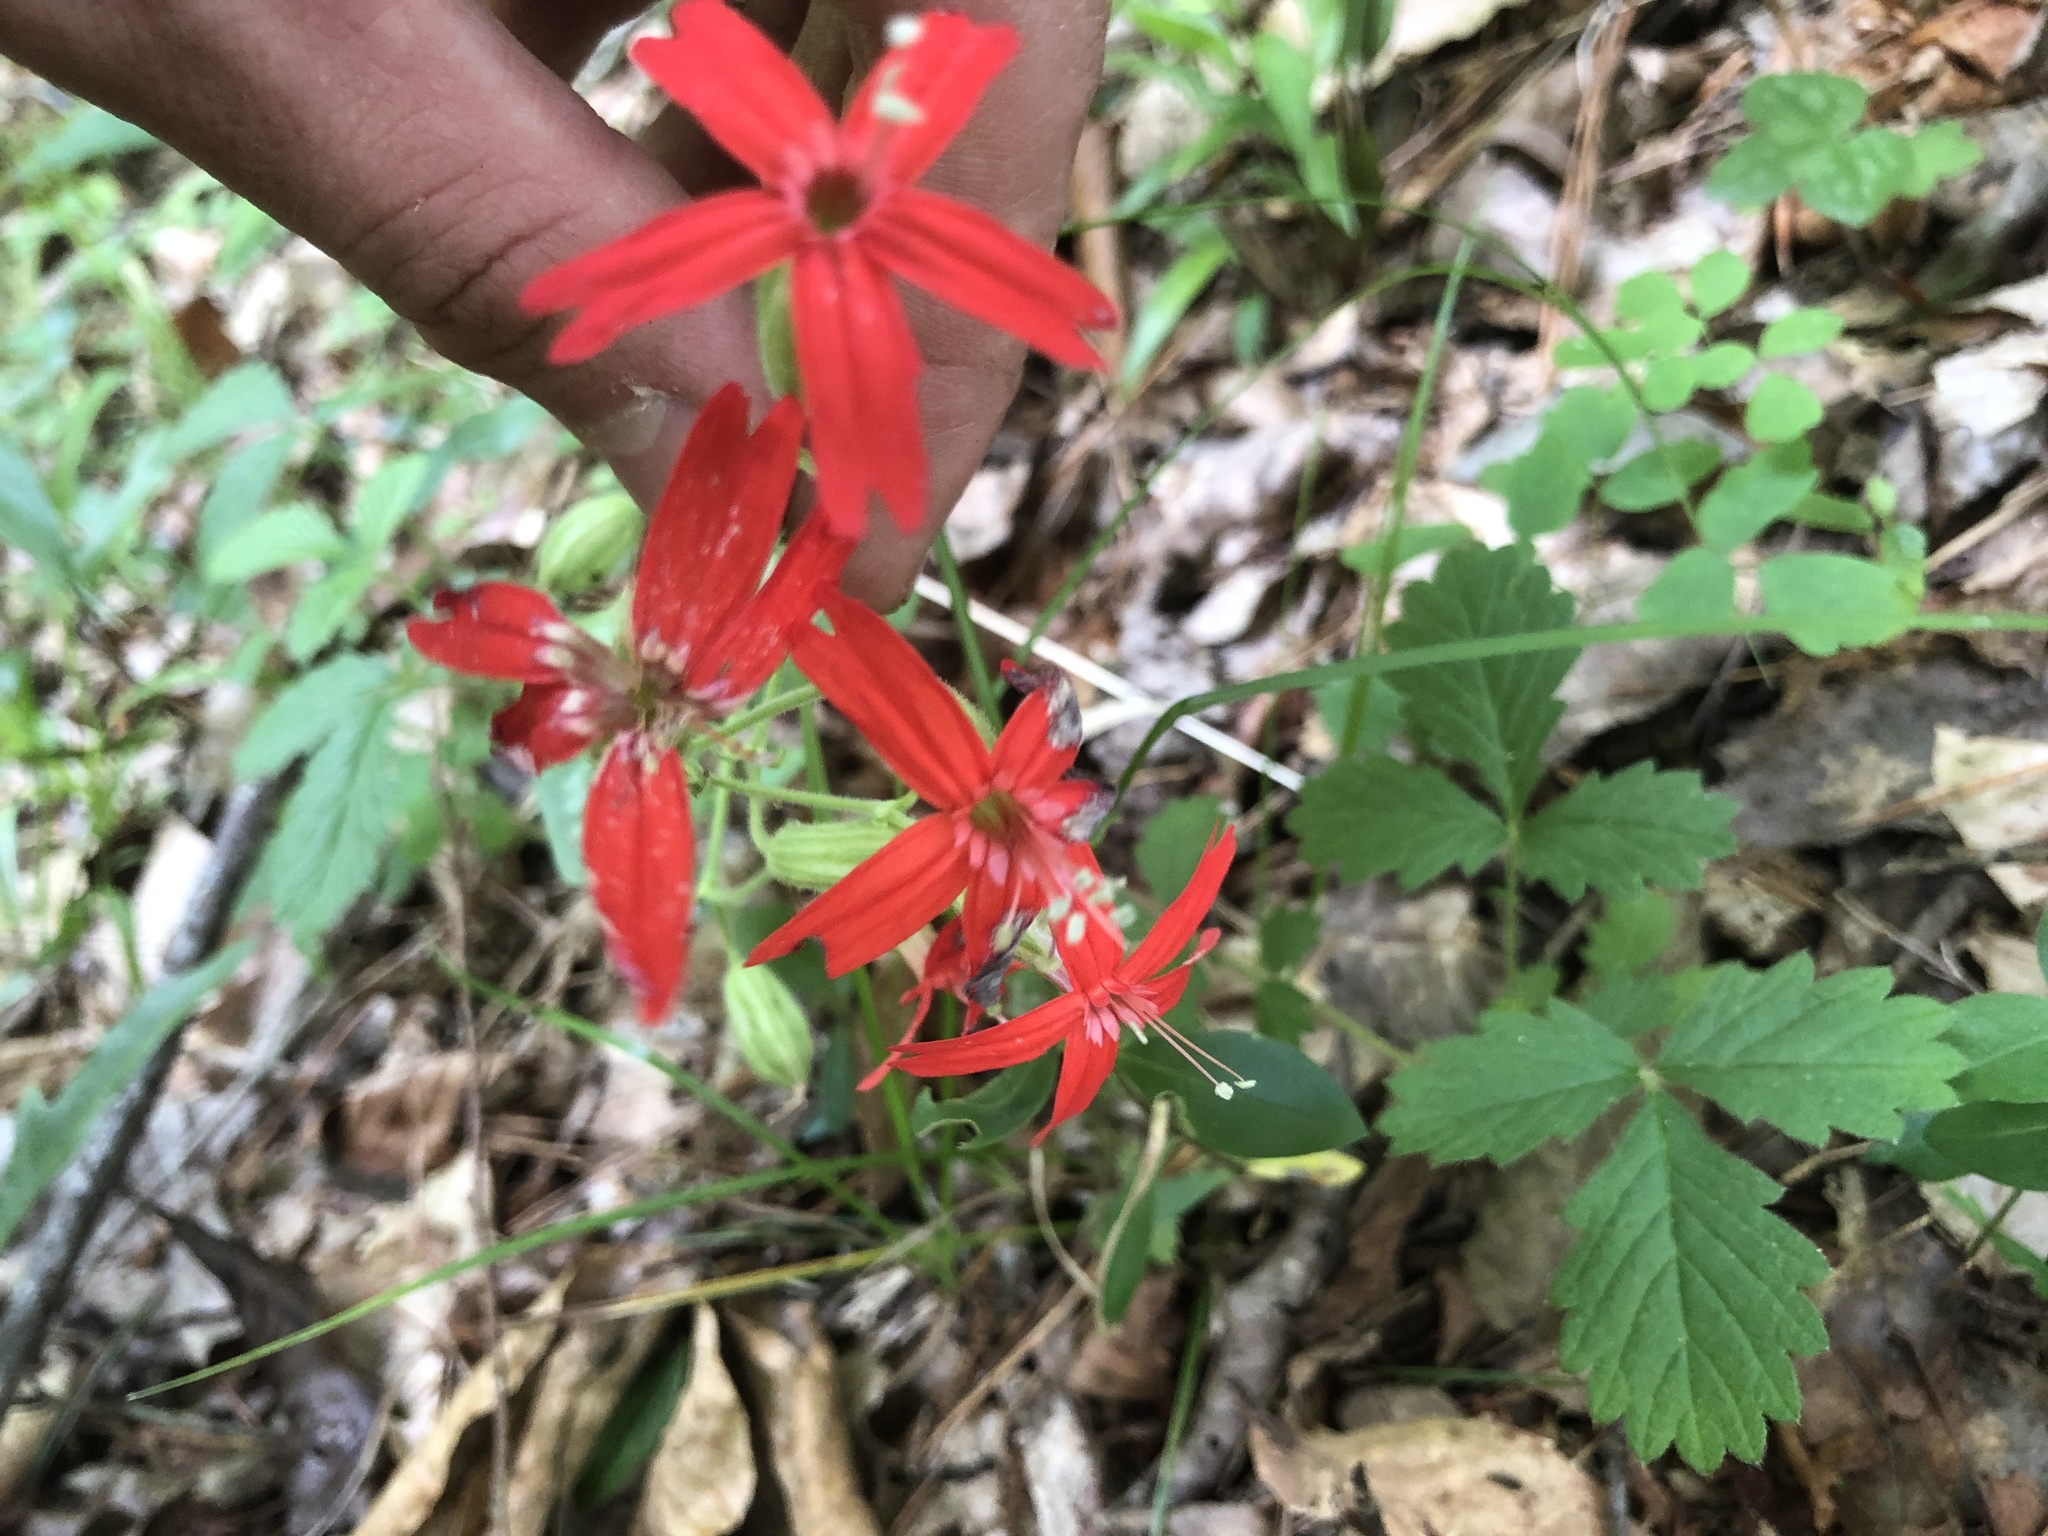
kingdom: Plantae
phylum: Tracheophyta
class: Magnoliopsida
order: Caryophyllales
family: Caryophyllaceae
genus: Silene
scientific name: Silene virginica
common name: Fire-pink
